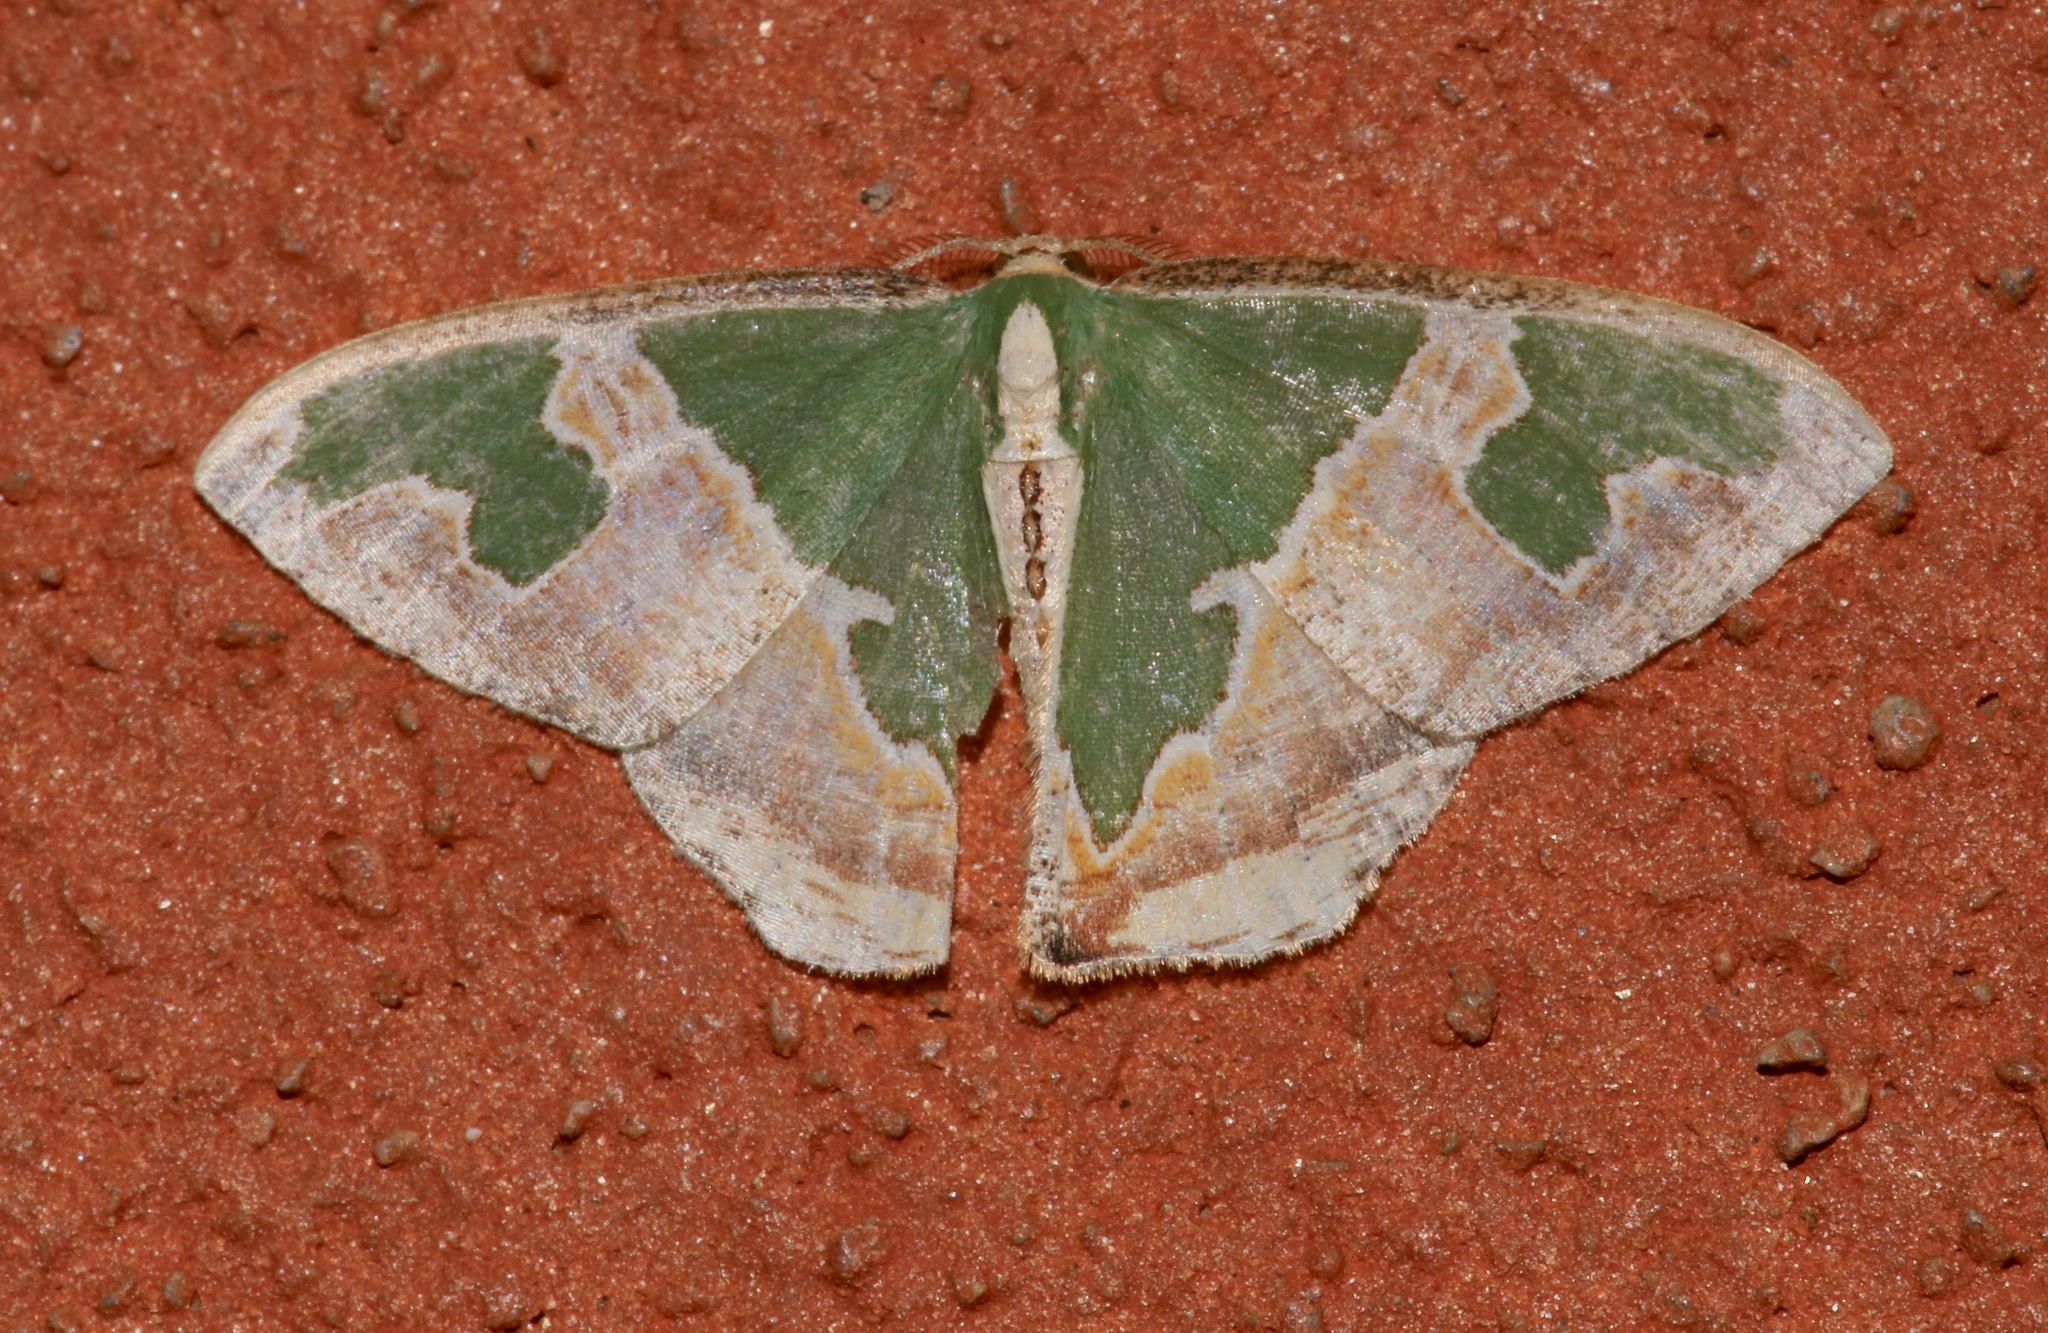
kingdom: Animalia
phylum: Arthropoda
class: Insecta
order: Lepidoptera
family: Geometridae
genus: Oospila
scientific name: Oospila venezuelata
